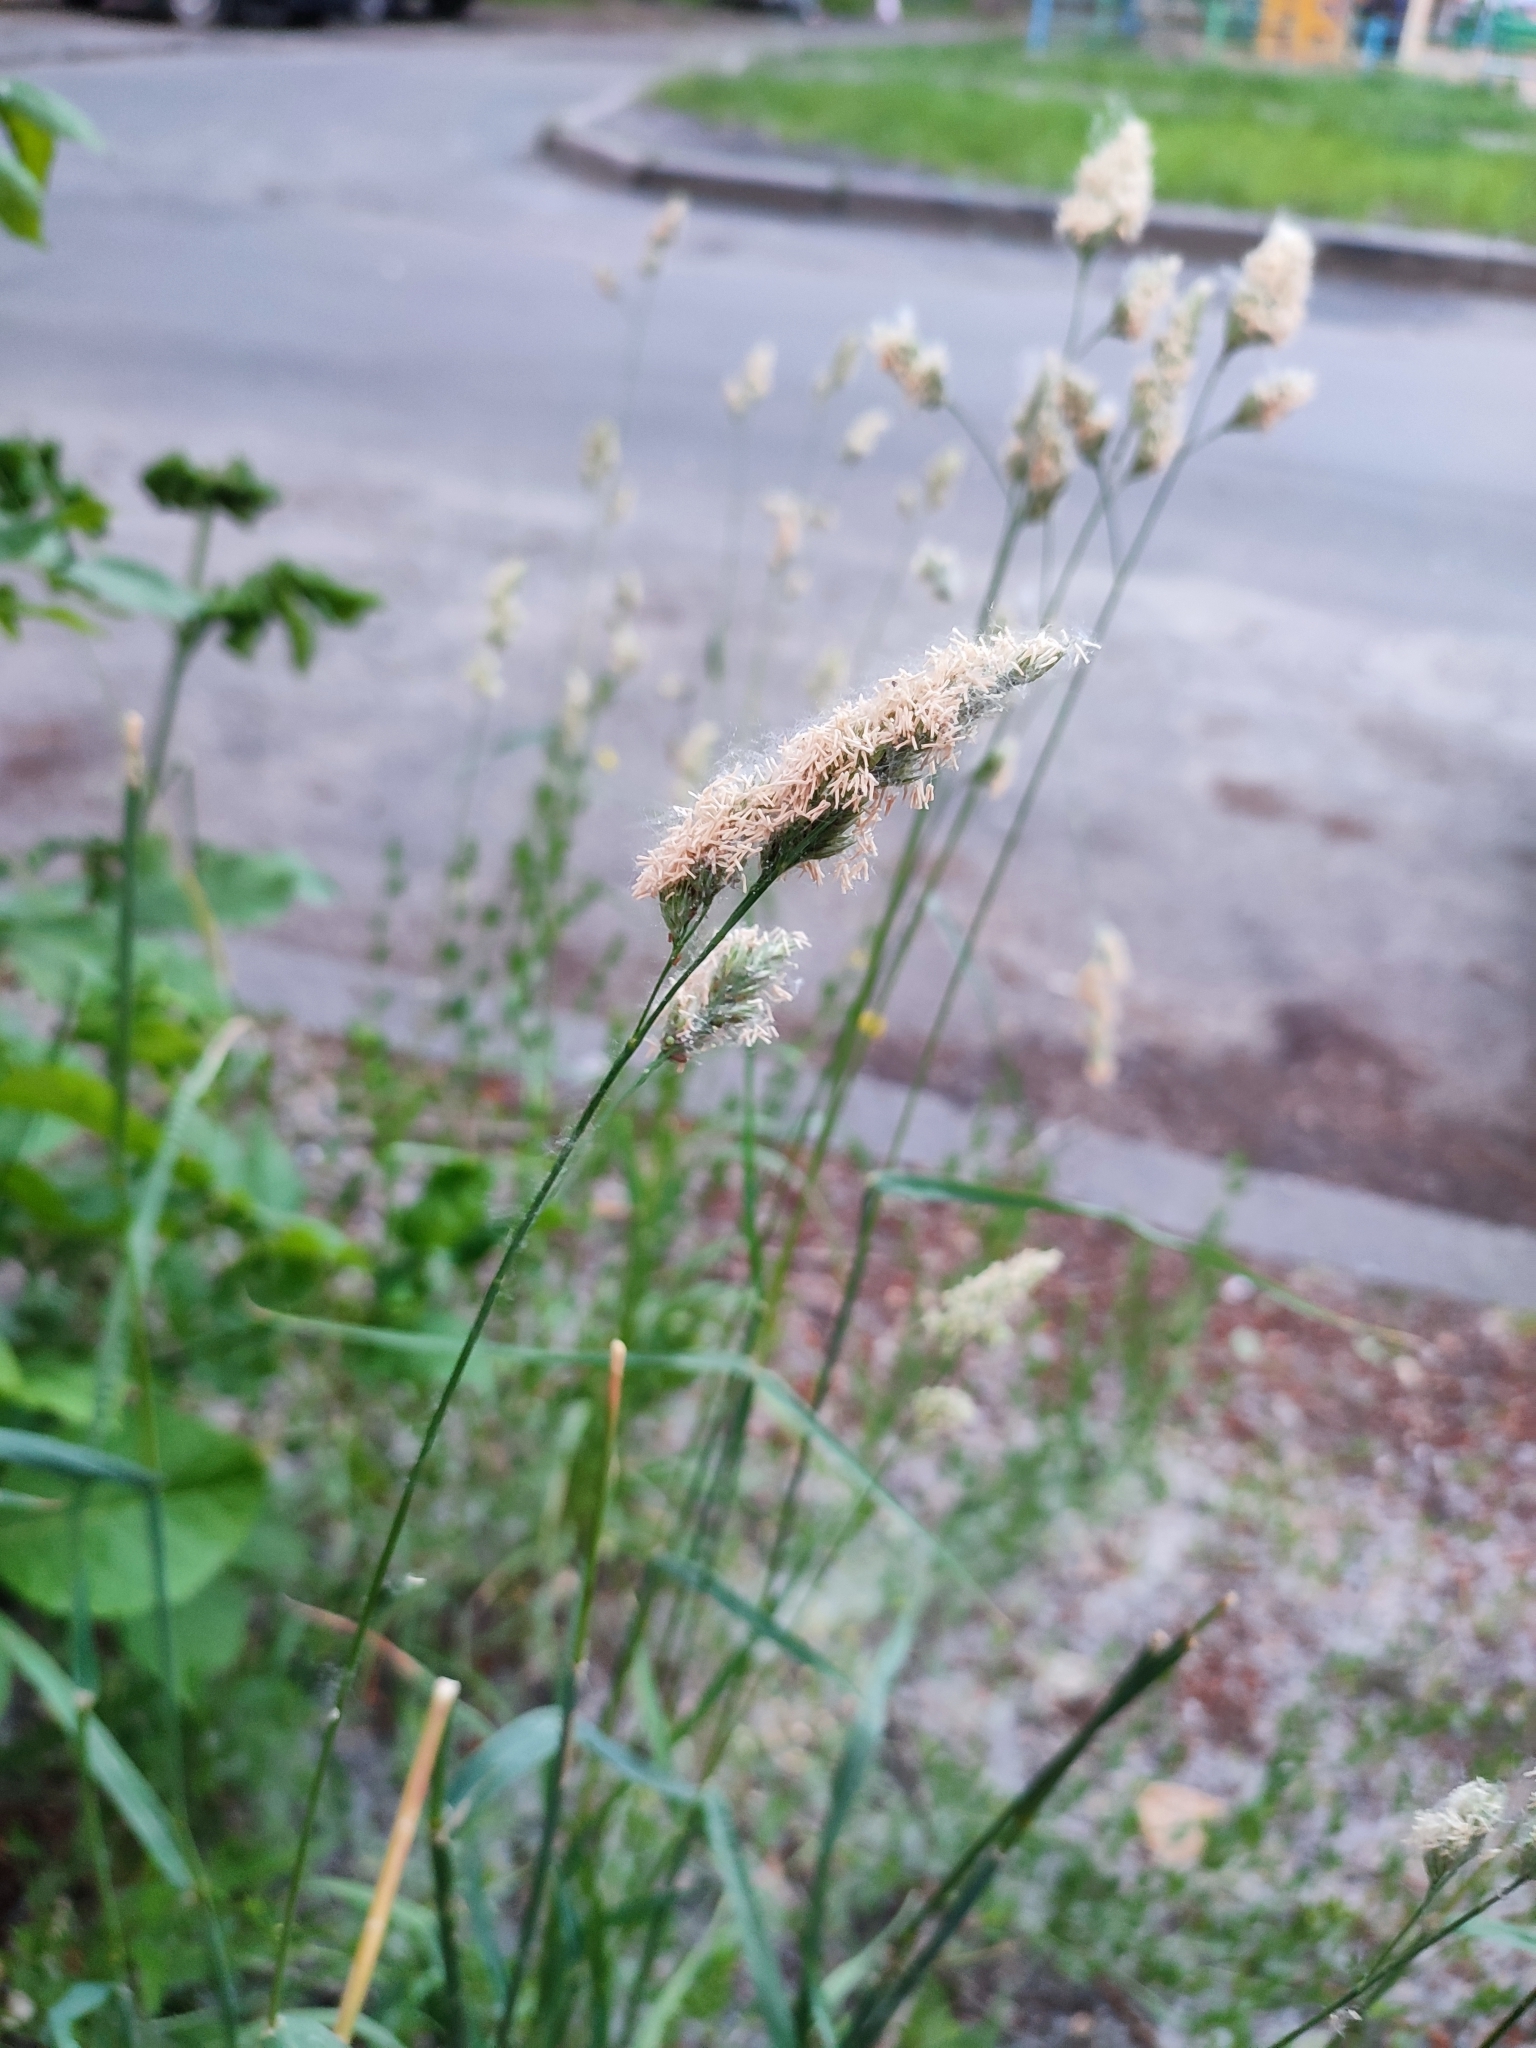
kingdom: Plantae
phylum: Tracheophyta
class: Liliopsida
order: Poales
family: Poaceae
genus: Dactylis
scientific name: Dactylis glomerata
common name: Orchardgrass
